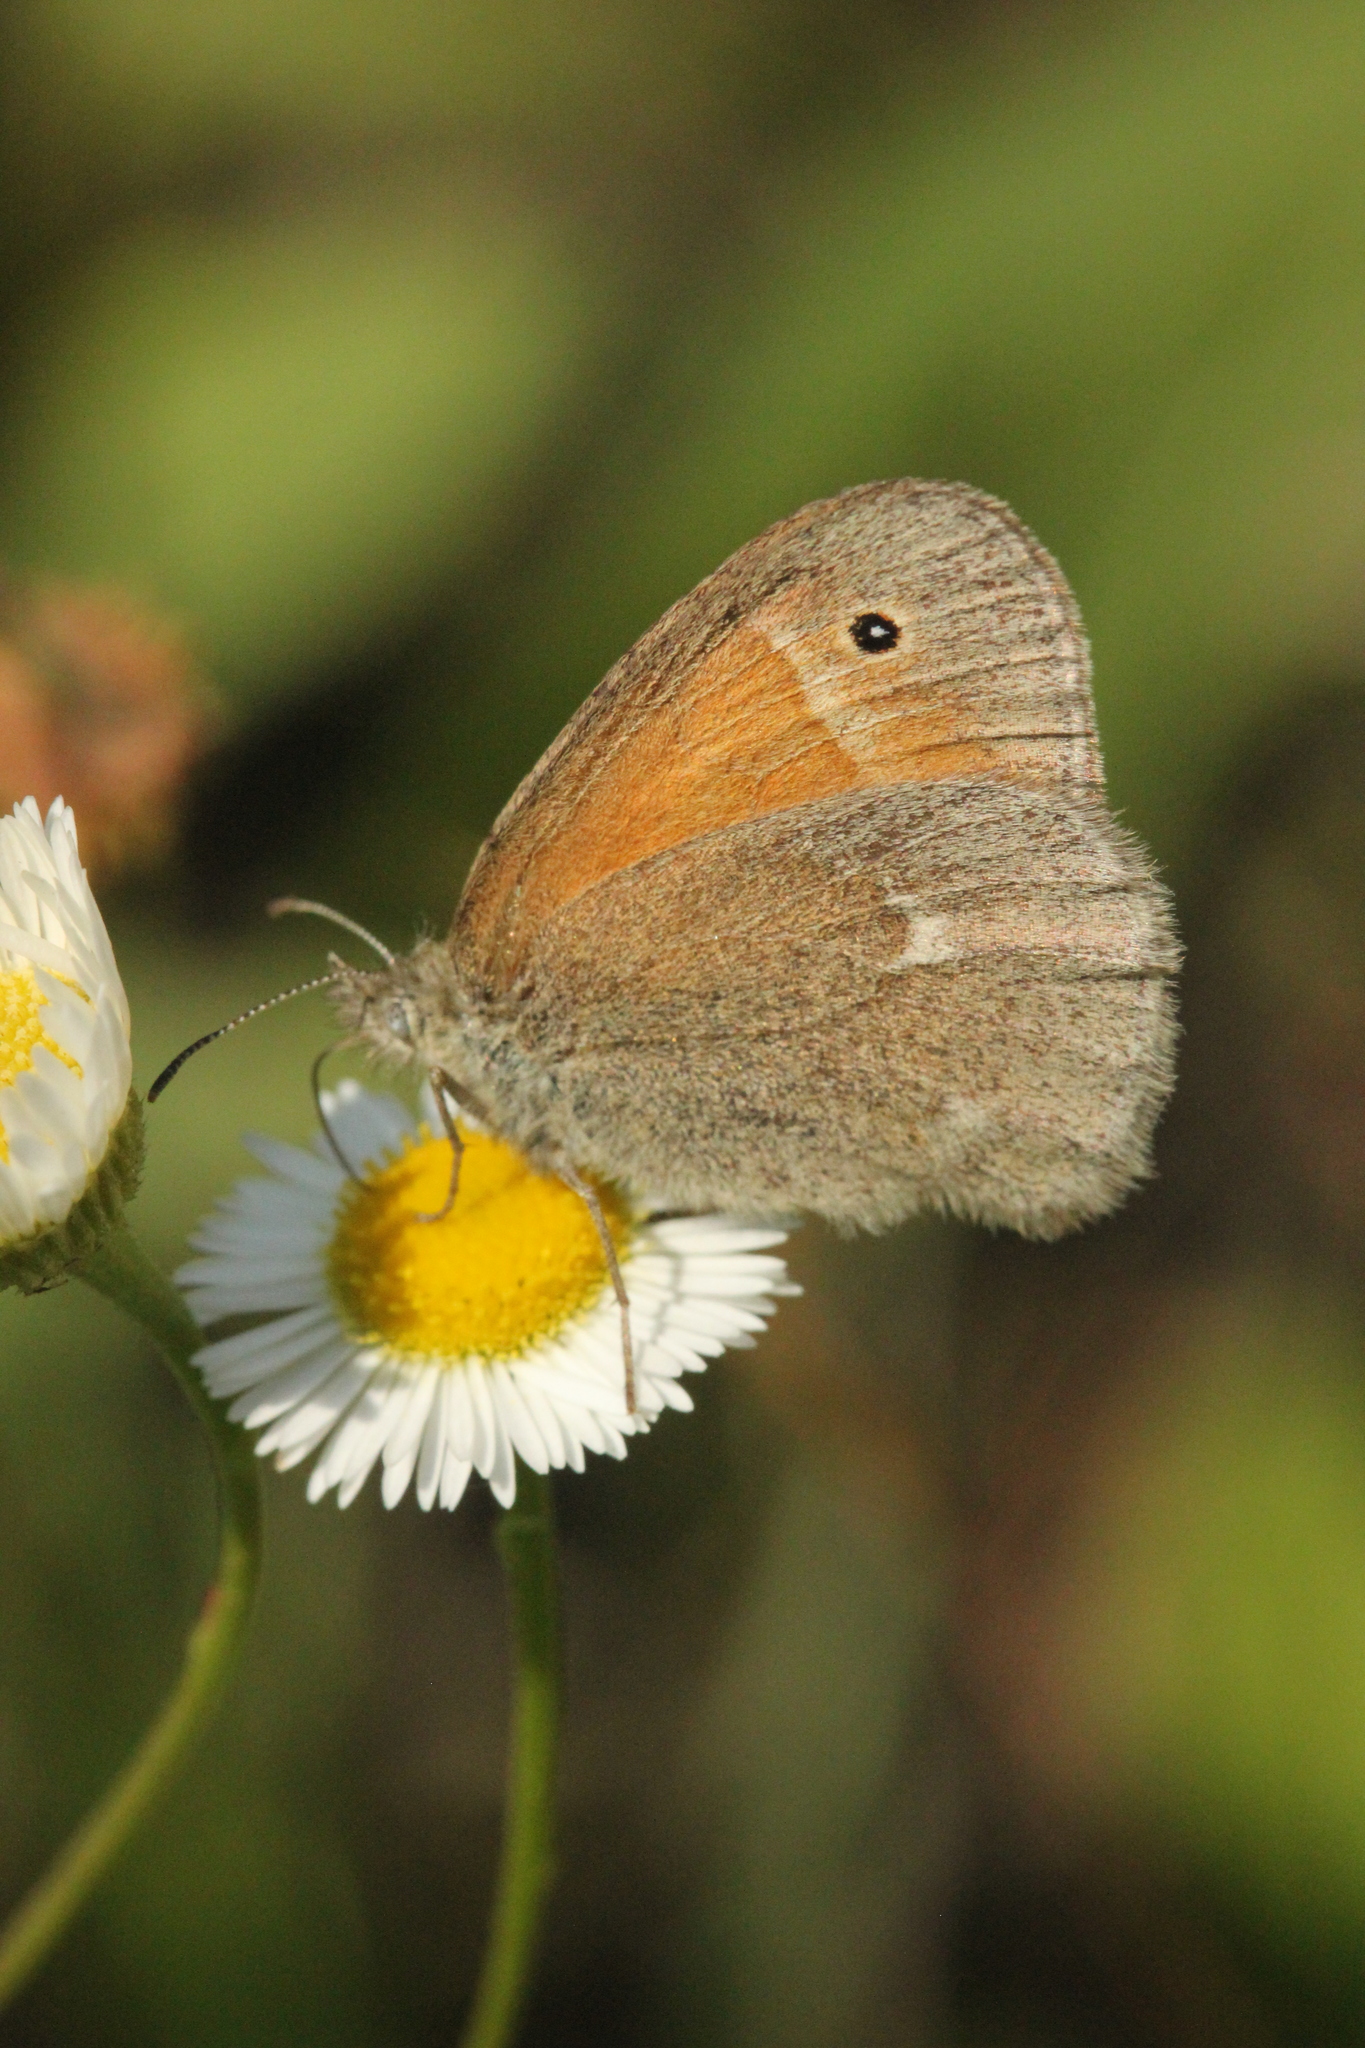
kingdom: Animalia
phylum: Arthropoda
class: Insecta
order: Lepidoptera
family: Nymphalidae
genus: Coenonympha
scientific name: Coenonympha california
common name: Common ringlet
